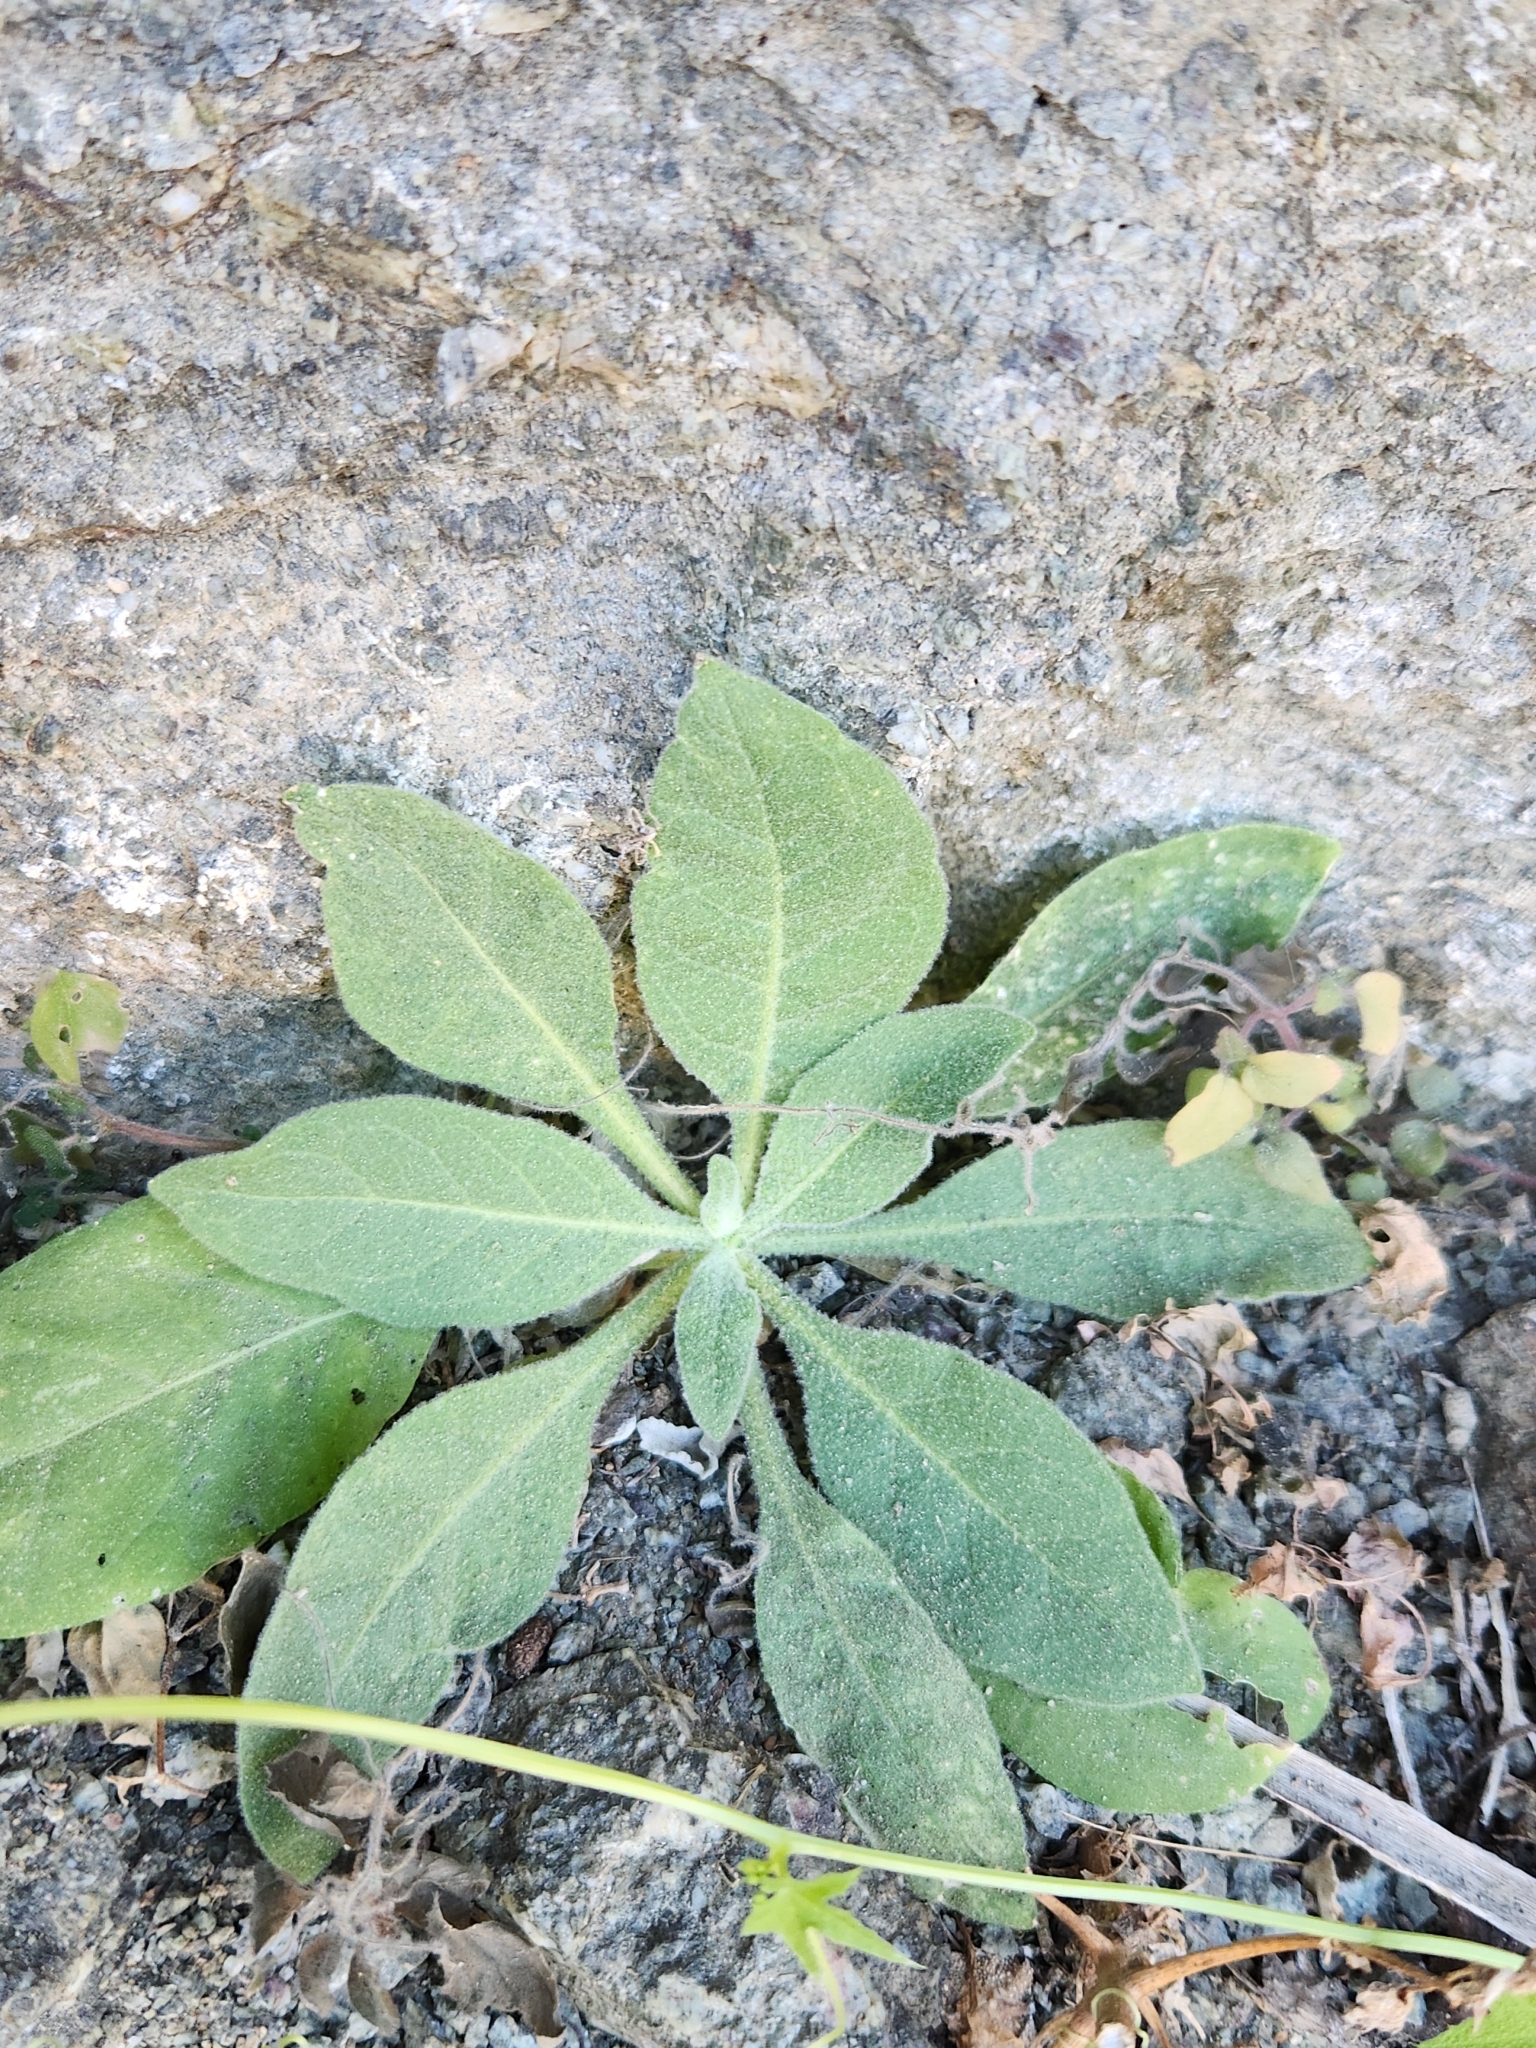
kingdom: Plantae
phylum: Tracheophyta
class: Magnoliopsida
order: Solanales
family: Solanaceae
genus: Nicotiana
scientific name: Nicotiana obtusifolia
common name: Desert tobacco
